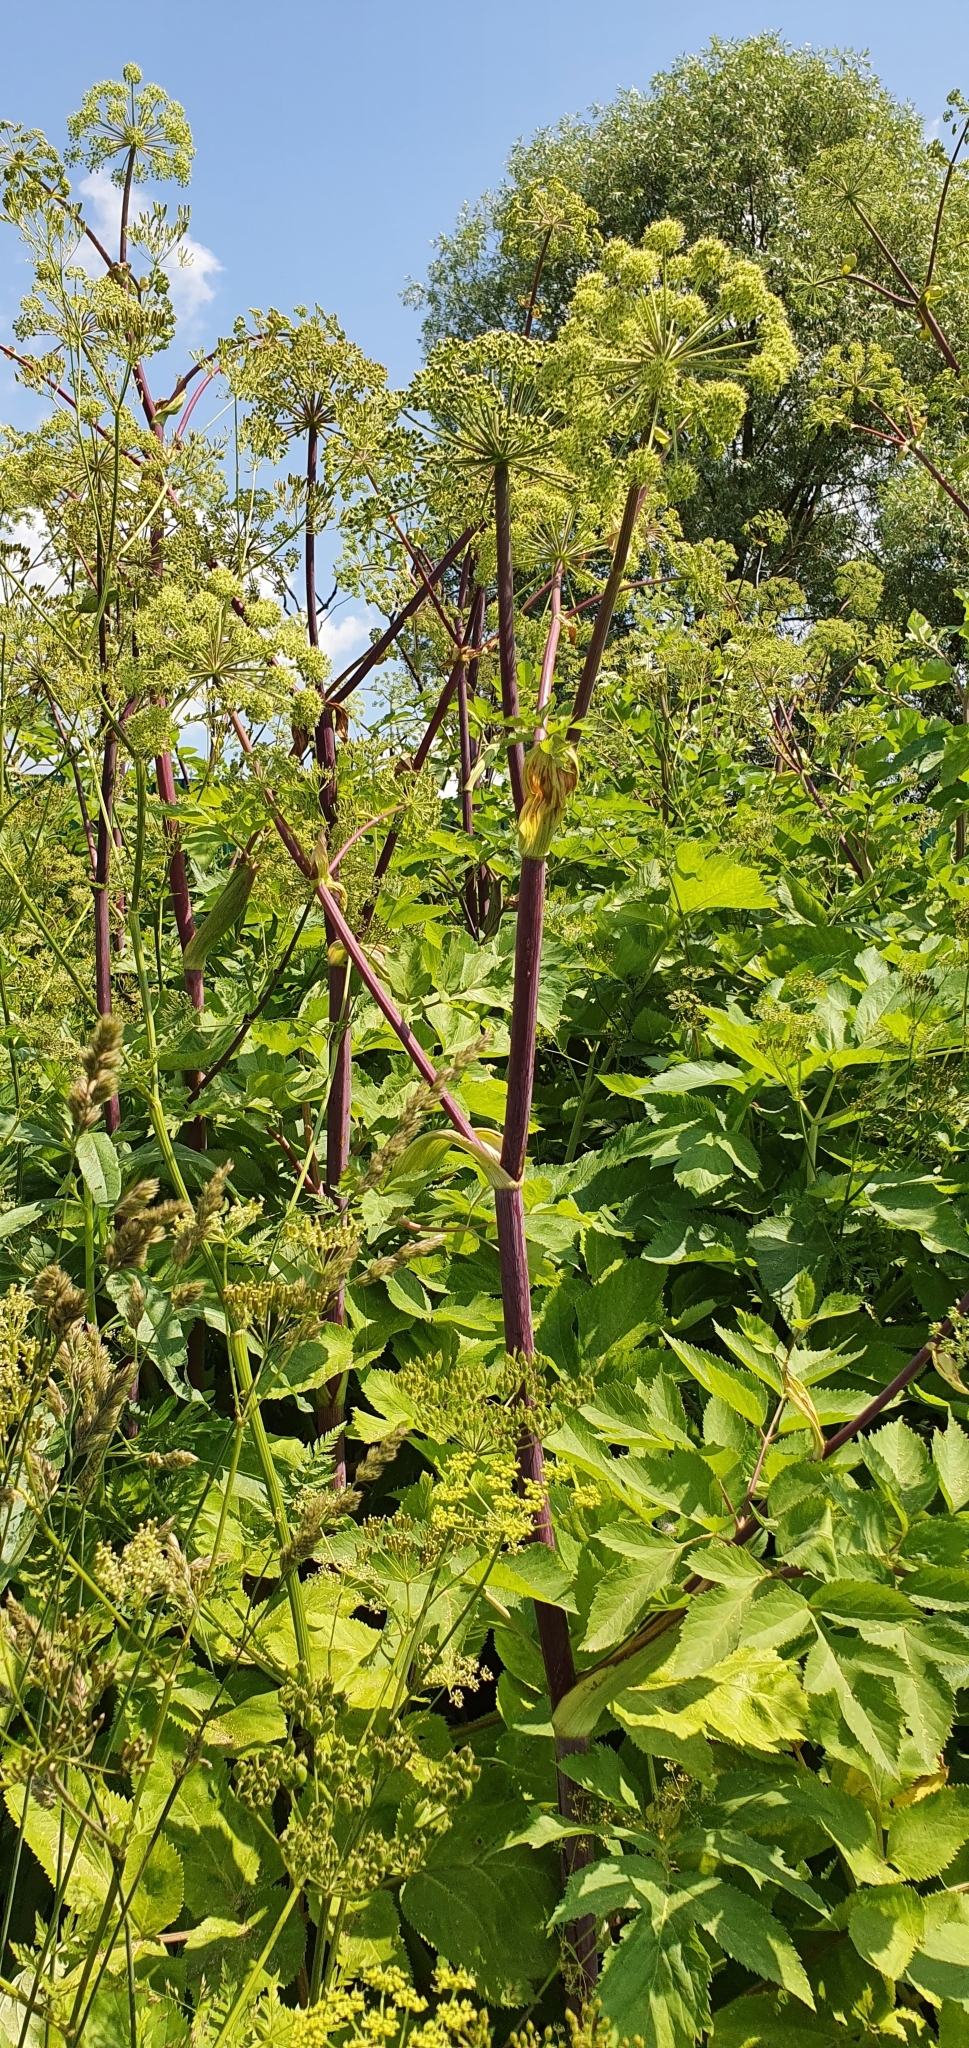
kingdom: Plantae
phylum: Tracheophyta
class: Magnoliopsida
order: Apiales
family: Apiaceae
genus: Angelica
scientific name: Angelica archangelica
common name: Garden angelica
